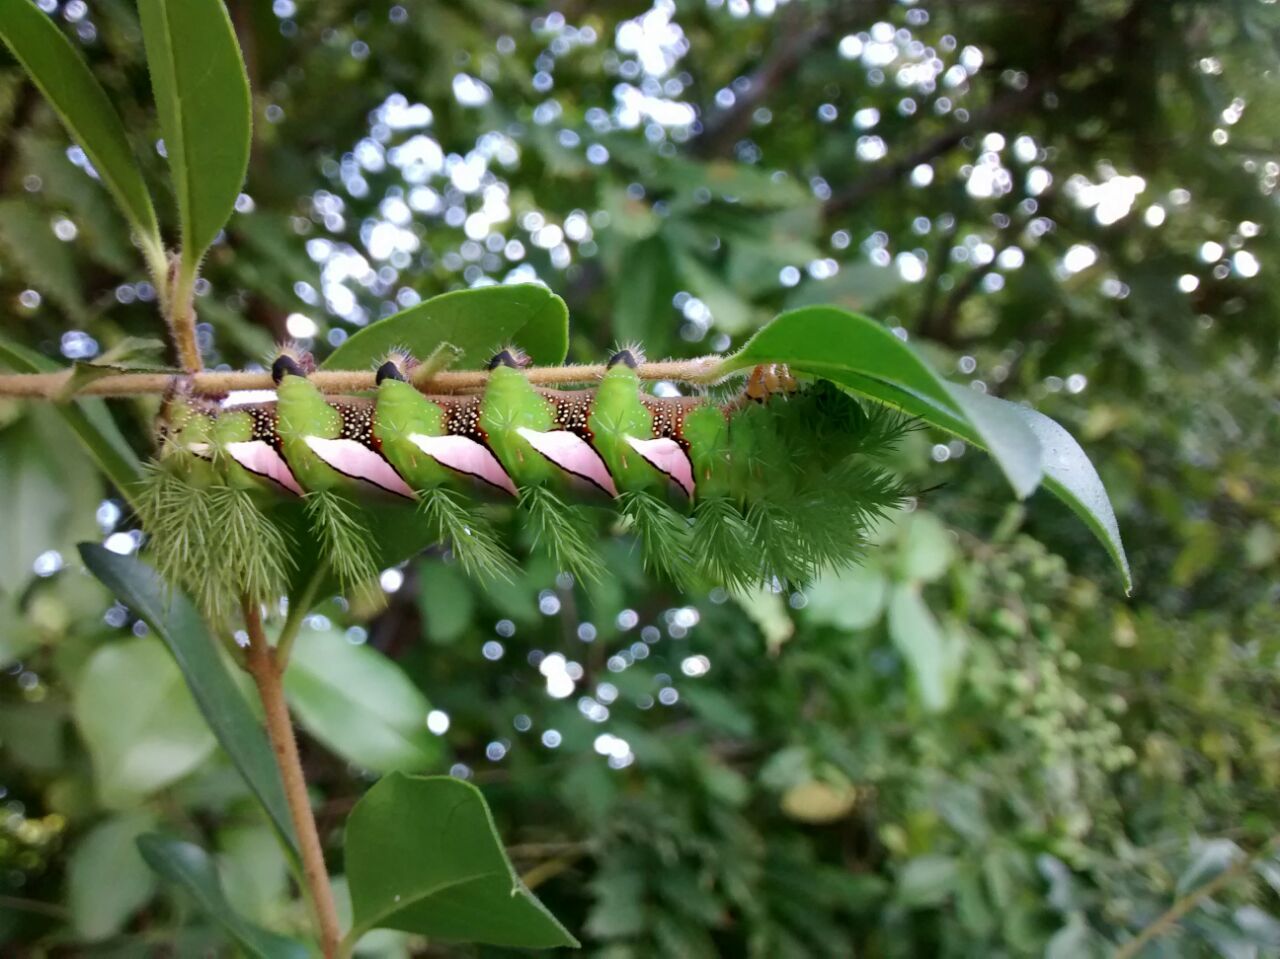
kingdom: Animalia
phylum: Arthropoda
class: Insecta
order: Lepidoptera
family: Saturniidae
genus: Automeris
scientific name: Automeris naranja
